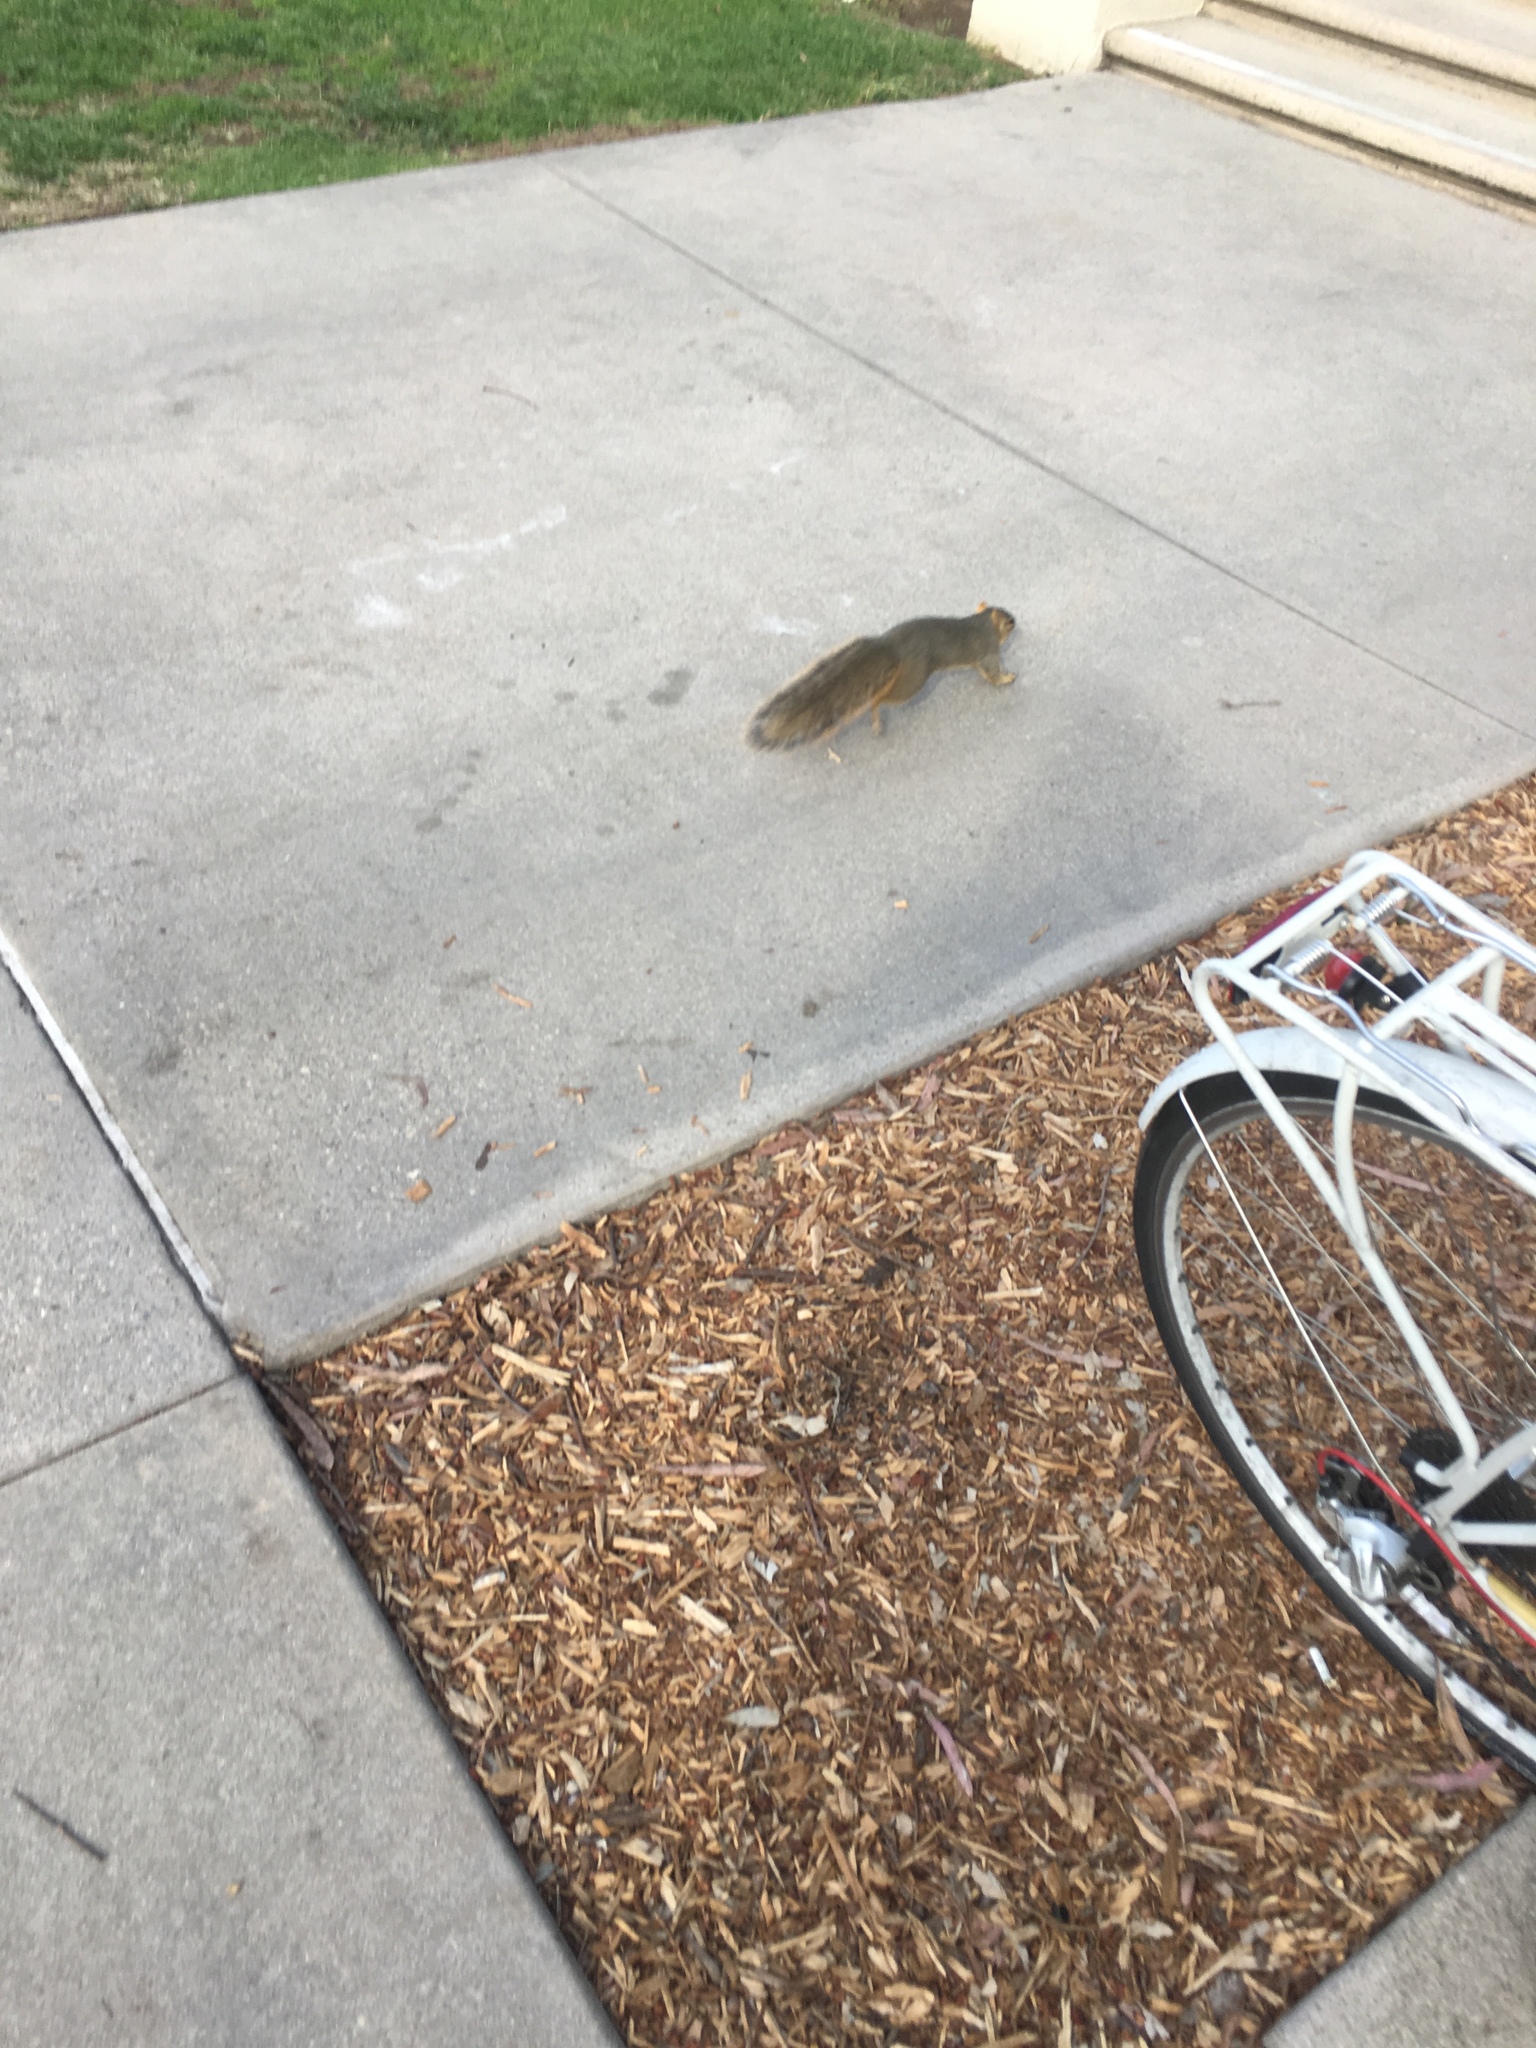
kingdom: Animalia
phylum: Chordata
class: Mammalia
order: Rodentia
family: Sciuridae
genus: Sciurus
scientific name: Sciurus niger
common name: Fox squirrel
